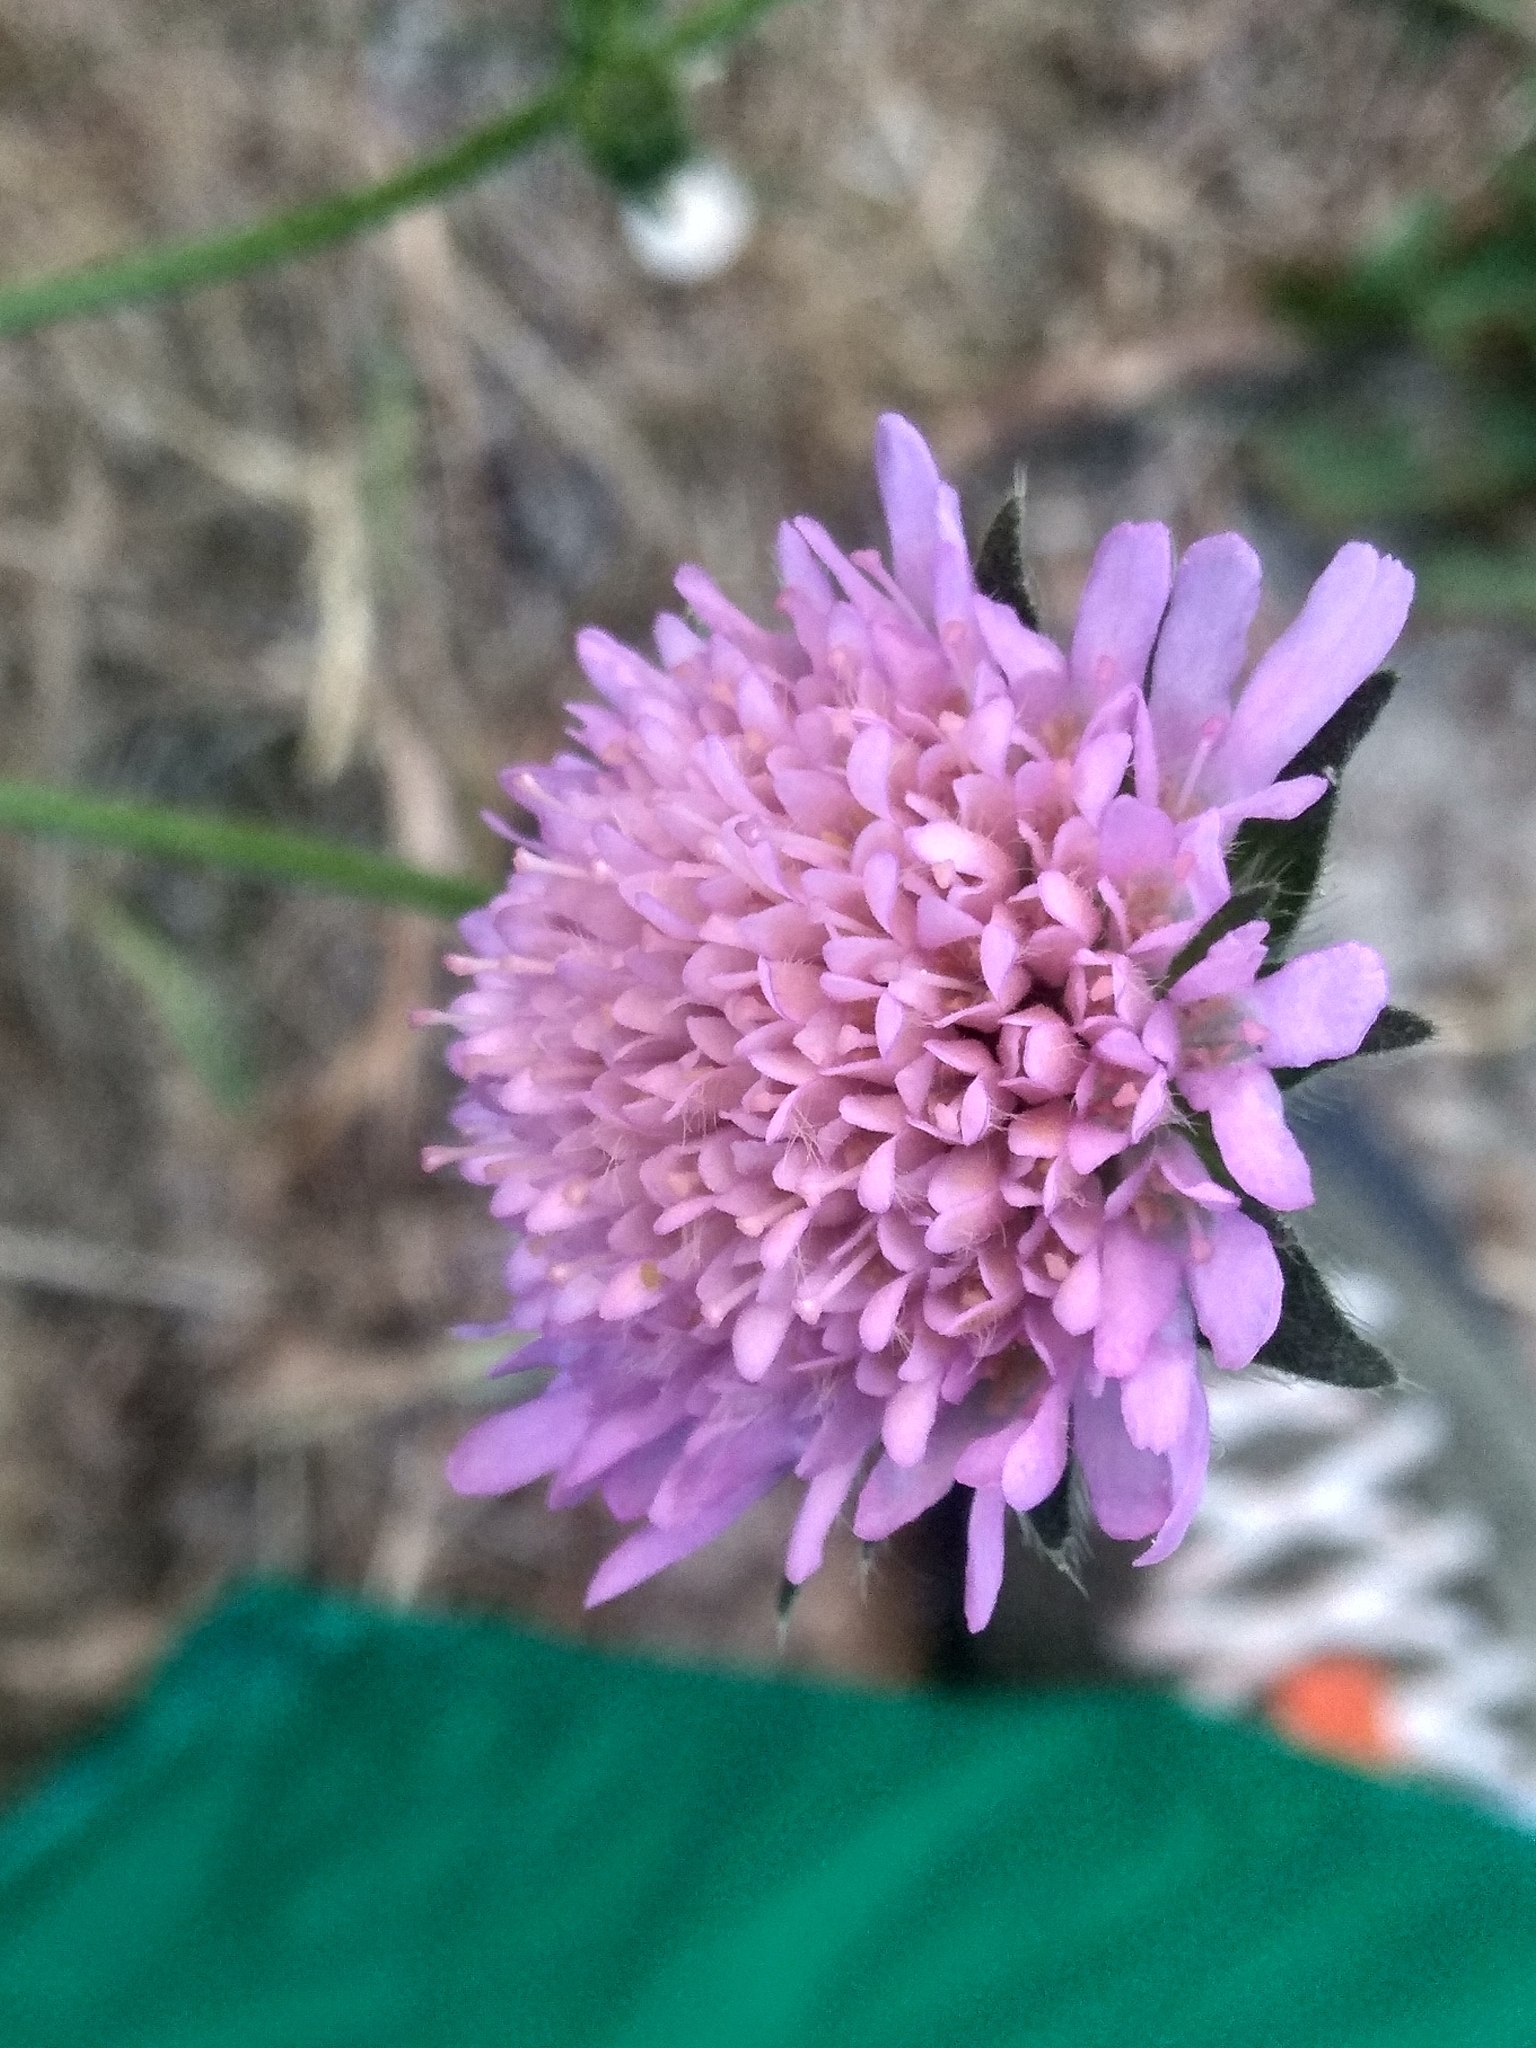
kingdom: Plantae
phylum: Tracheophyta
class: Magnoliopsida
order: Dipsacales
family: Caprifoliaceae
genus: Knautia
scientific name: Knautia arvensis
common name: Field scabiosa
